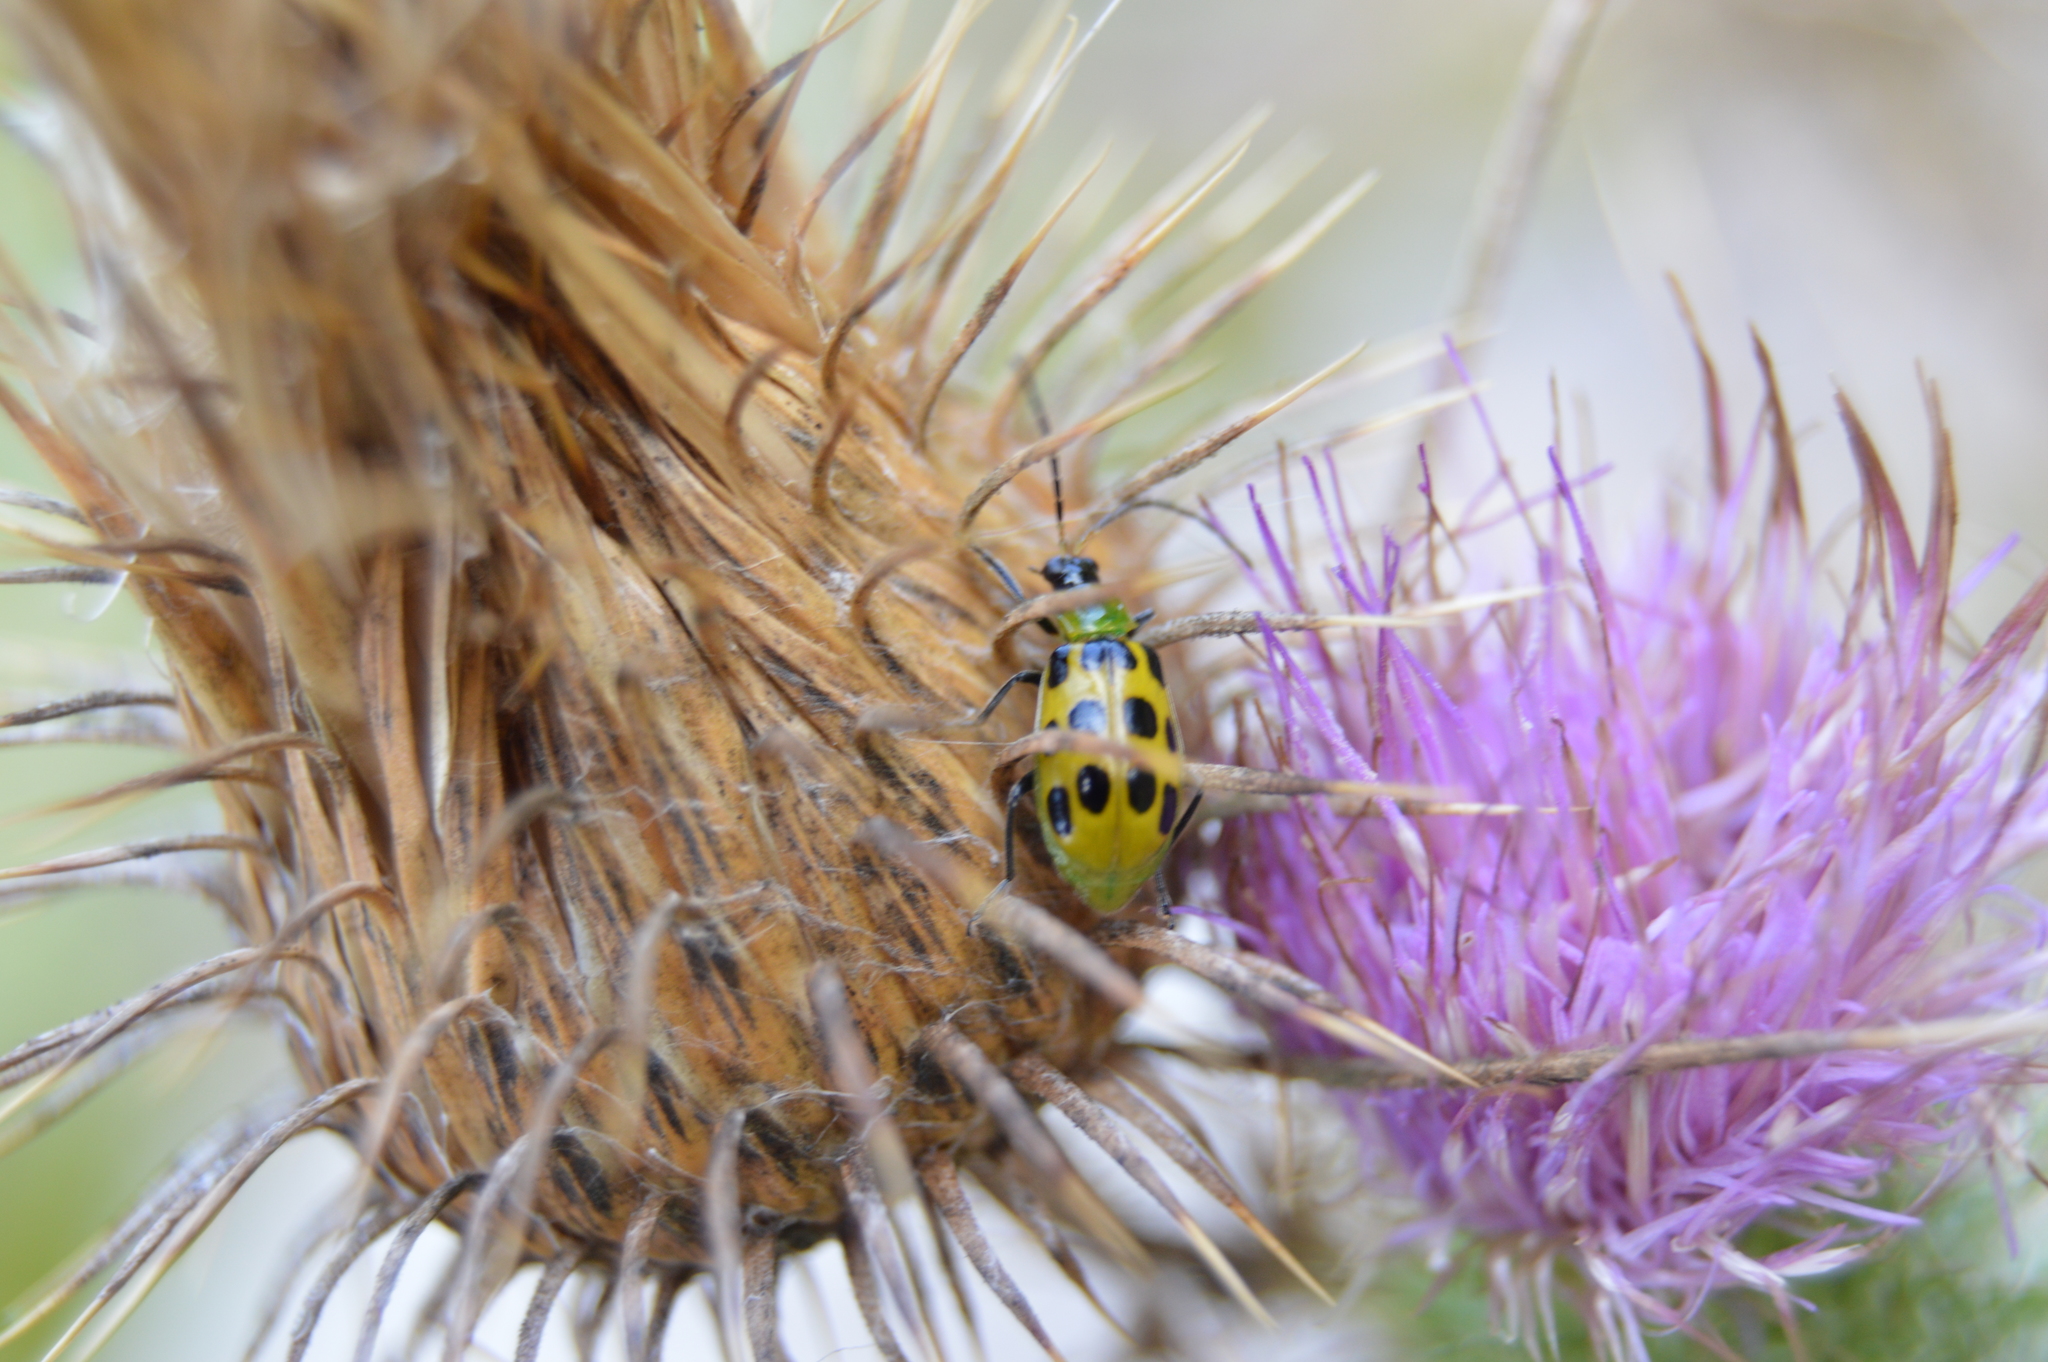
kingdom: Animalia
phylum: Arthropoda
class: Insecta
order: Coleoptera
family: Chrysomelidae
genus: Diabrotica
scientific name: Diabrotica undecimpunctata
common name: Spotted cucumber beetle
